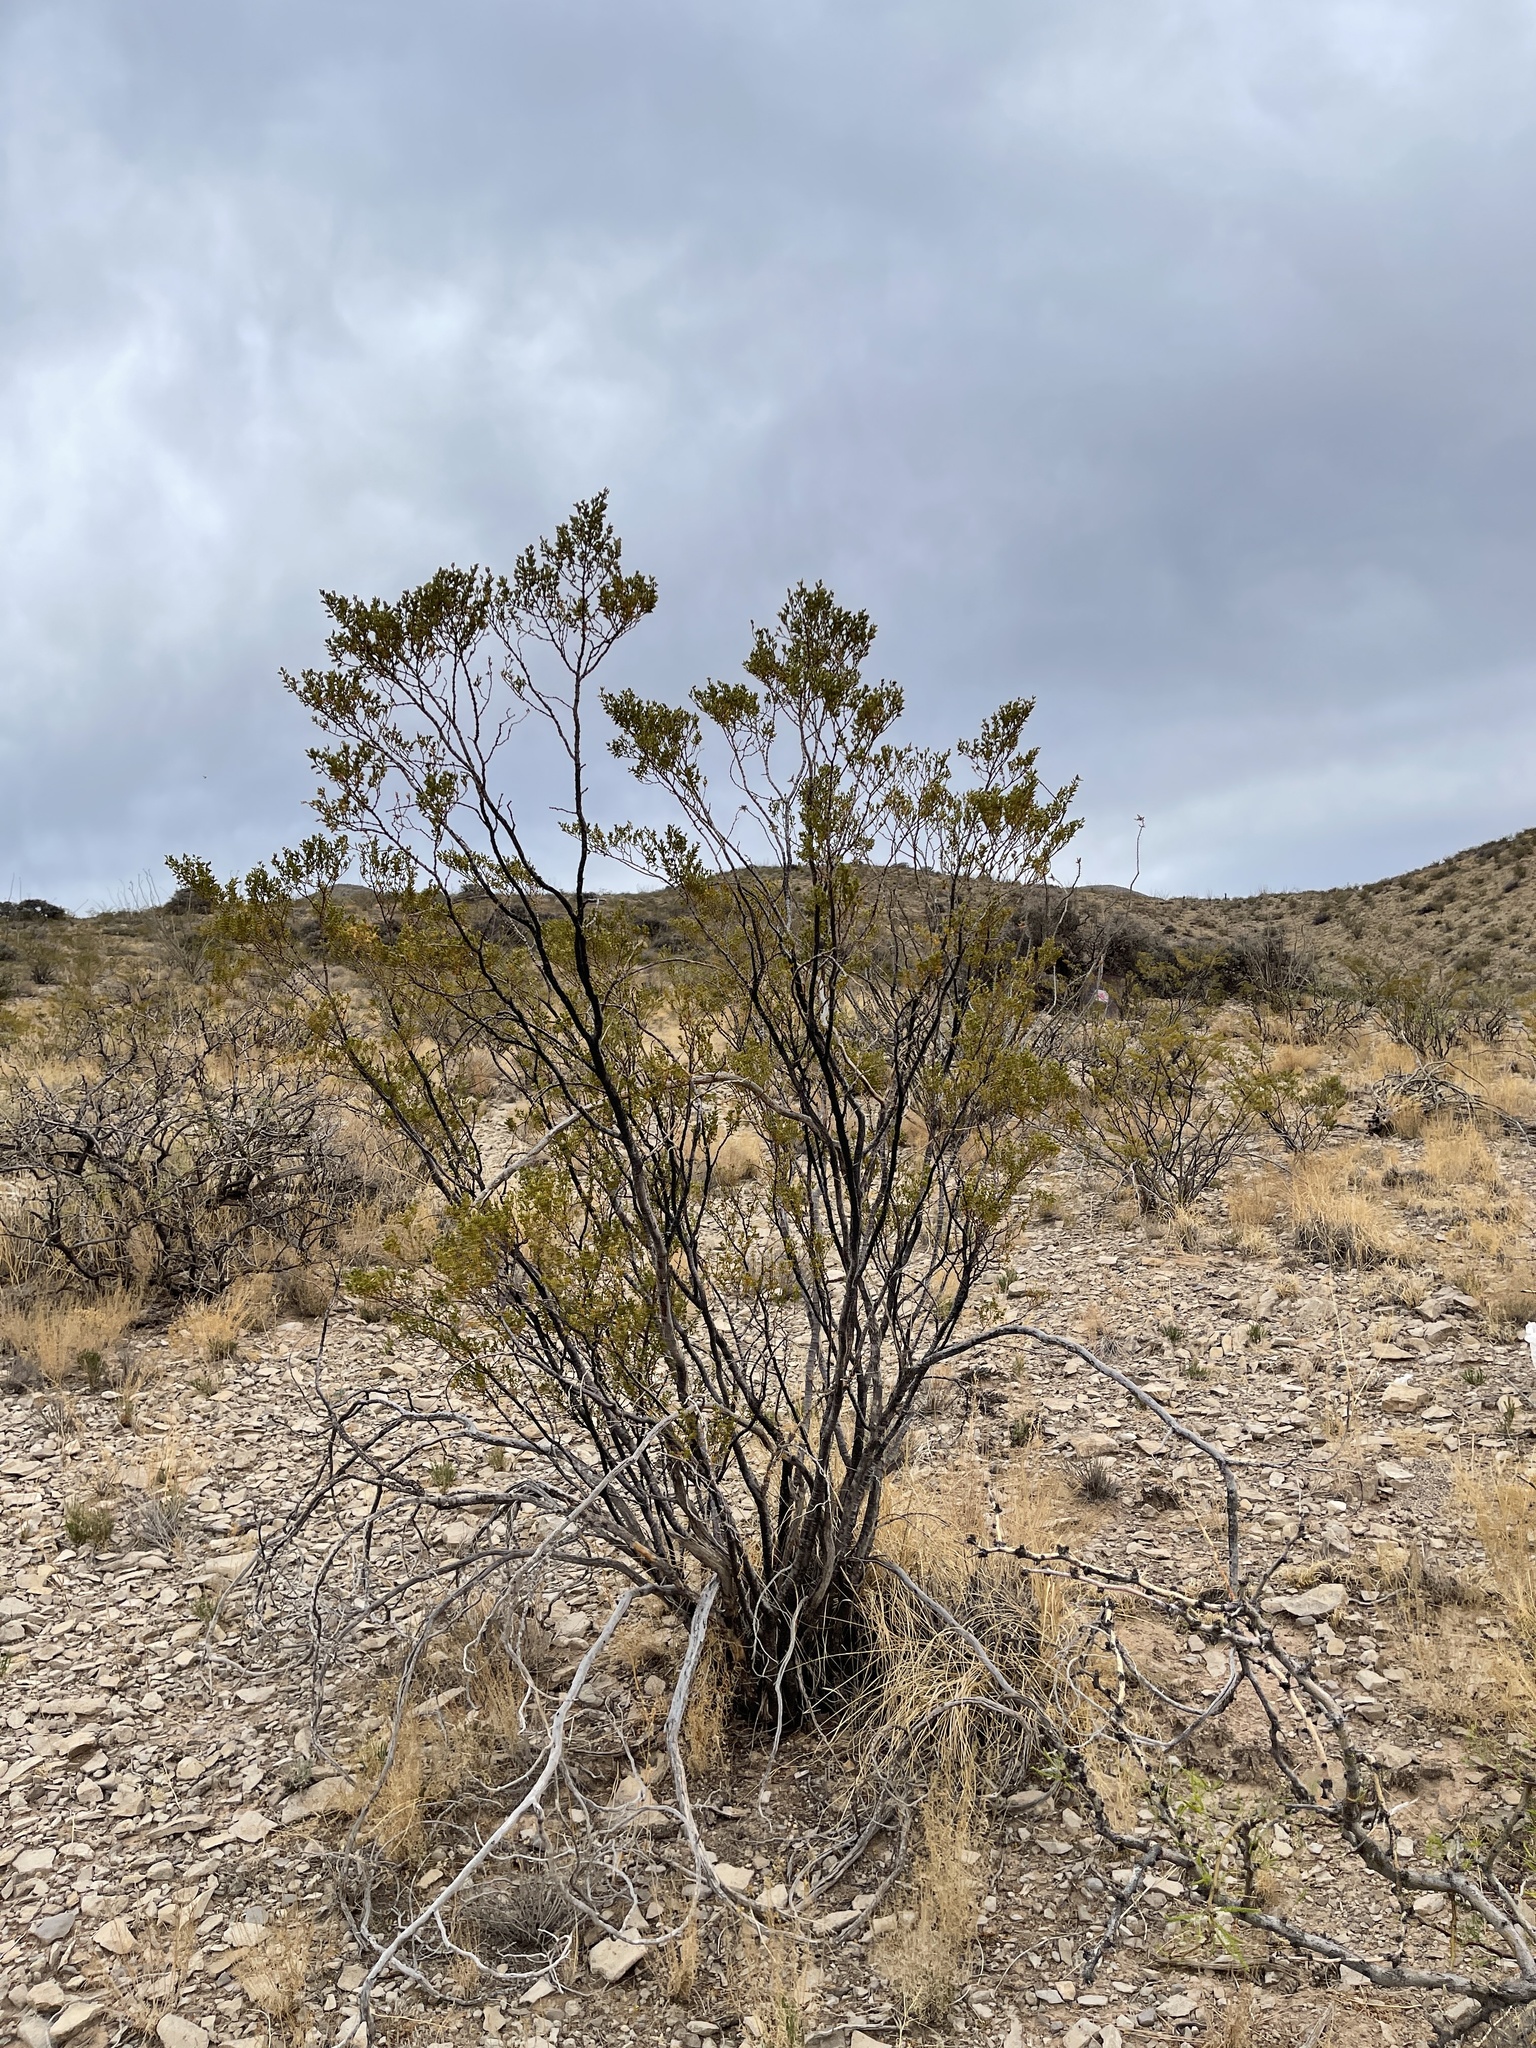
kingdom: Plantae
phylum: Tracheophyta
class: Magnoliopsida
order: Zygophyllales
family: Zygophyllaceae
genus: Larrea
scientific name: Larrea tridentata
